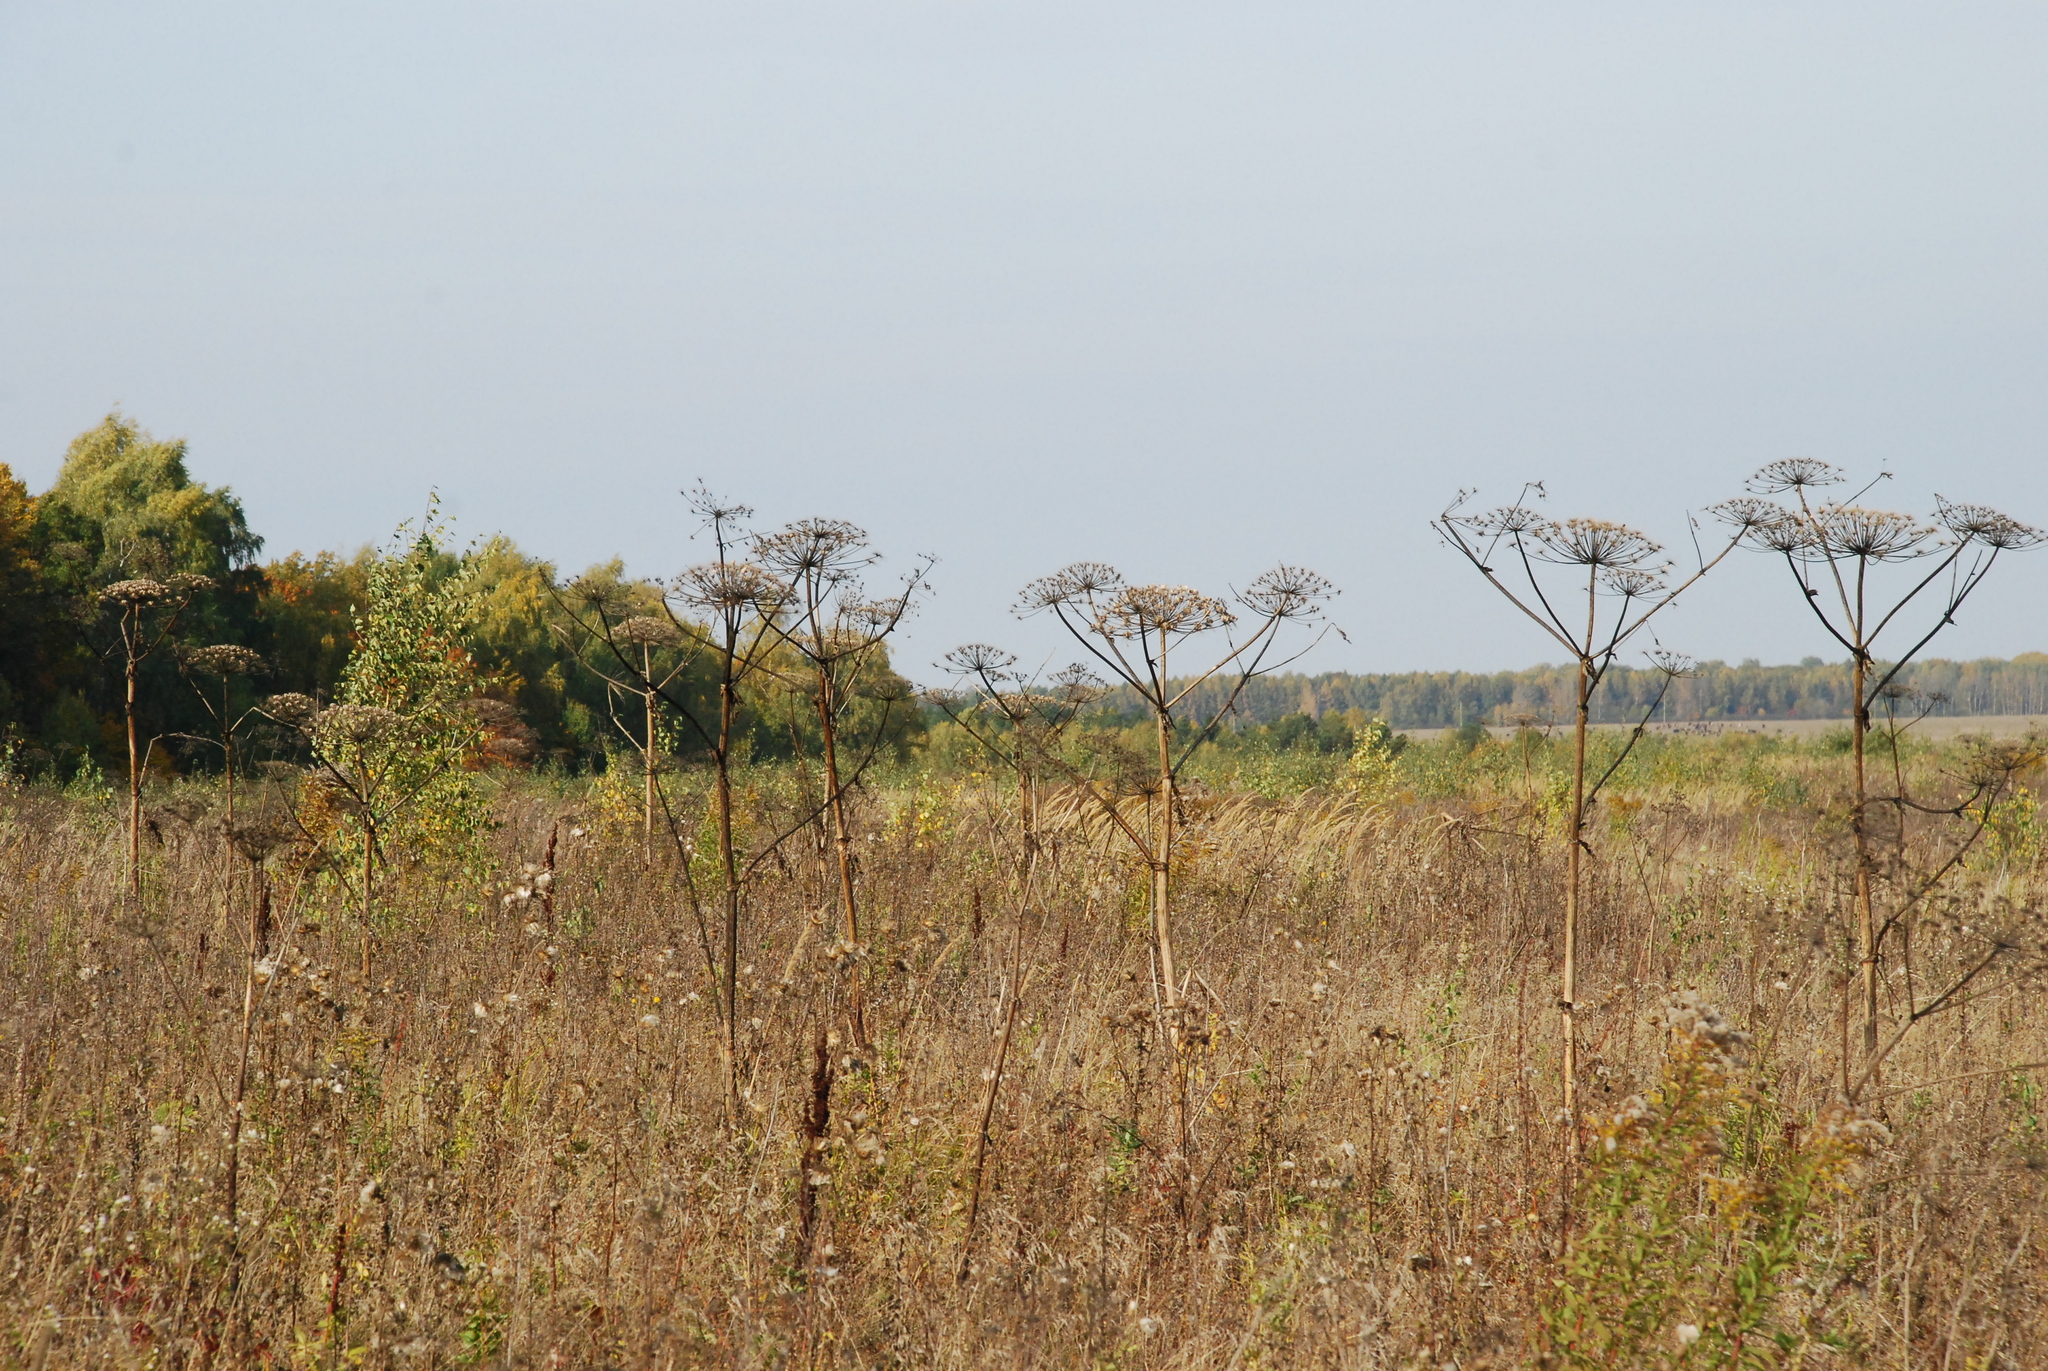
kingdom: Plantae
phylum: Tracheophyta
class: Magnoliopsida
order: Apiales
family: Apiaceae
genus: Heracleum
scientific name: Heracleum sosnowskyi
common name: Sosnowsky's hogweed
